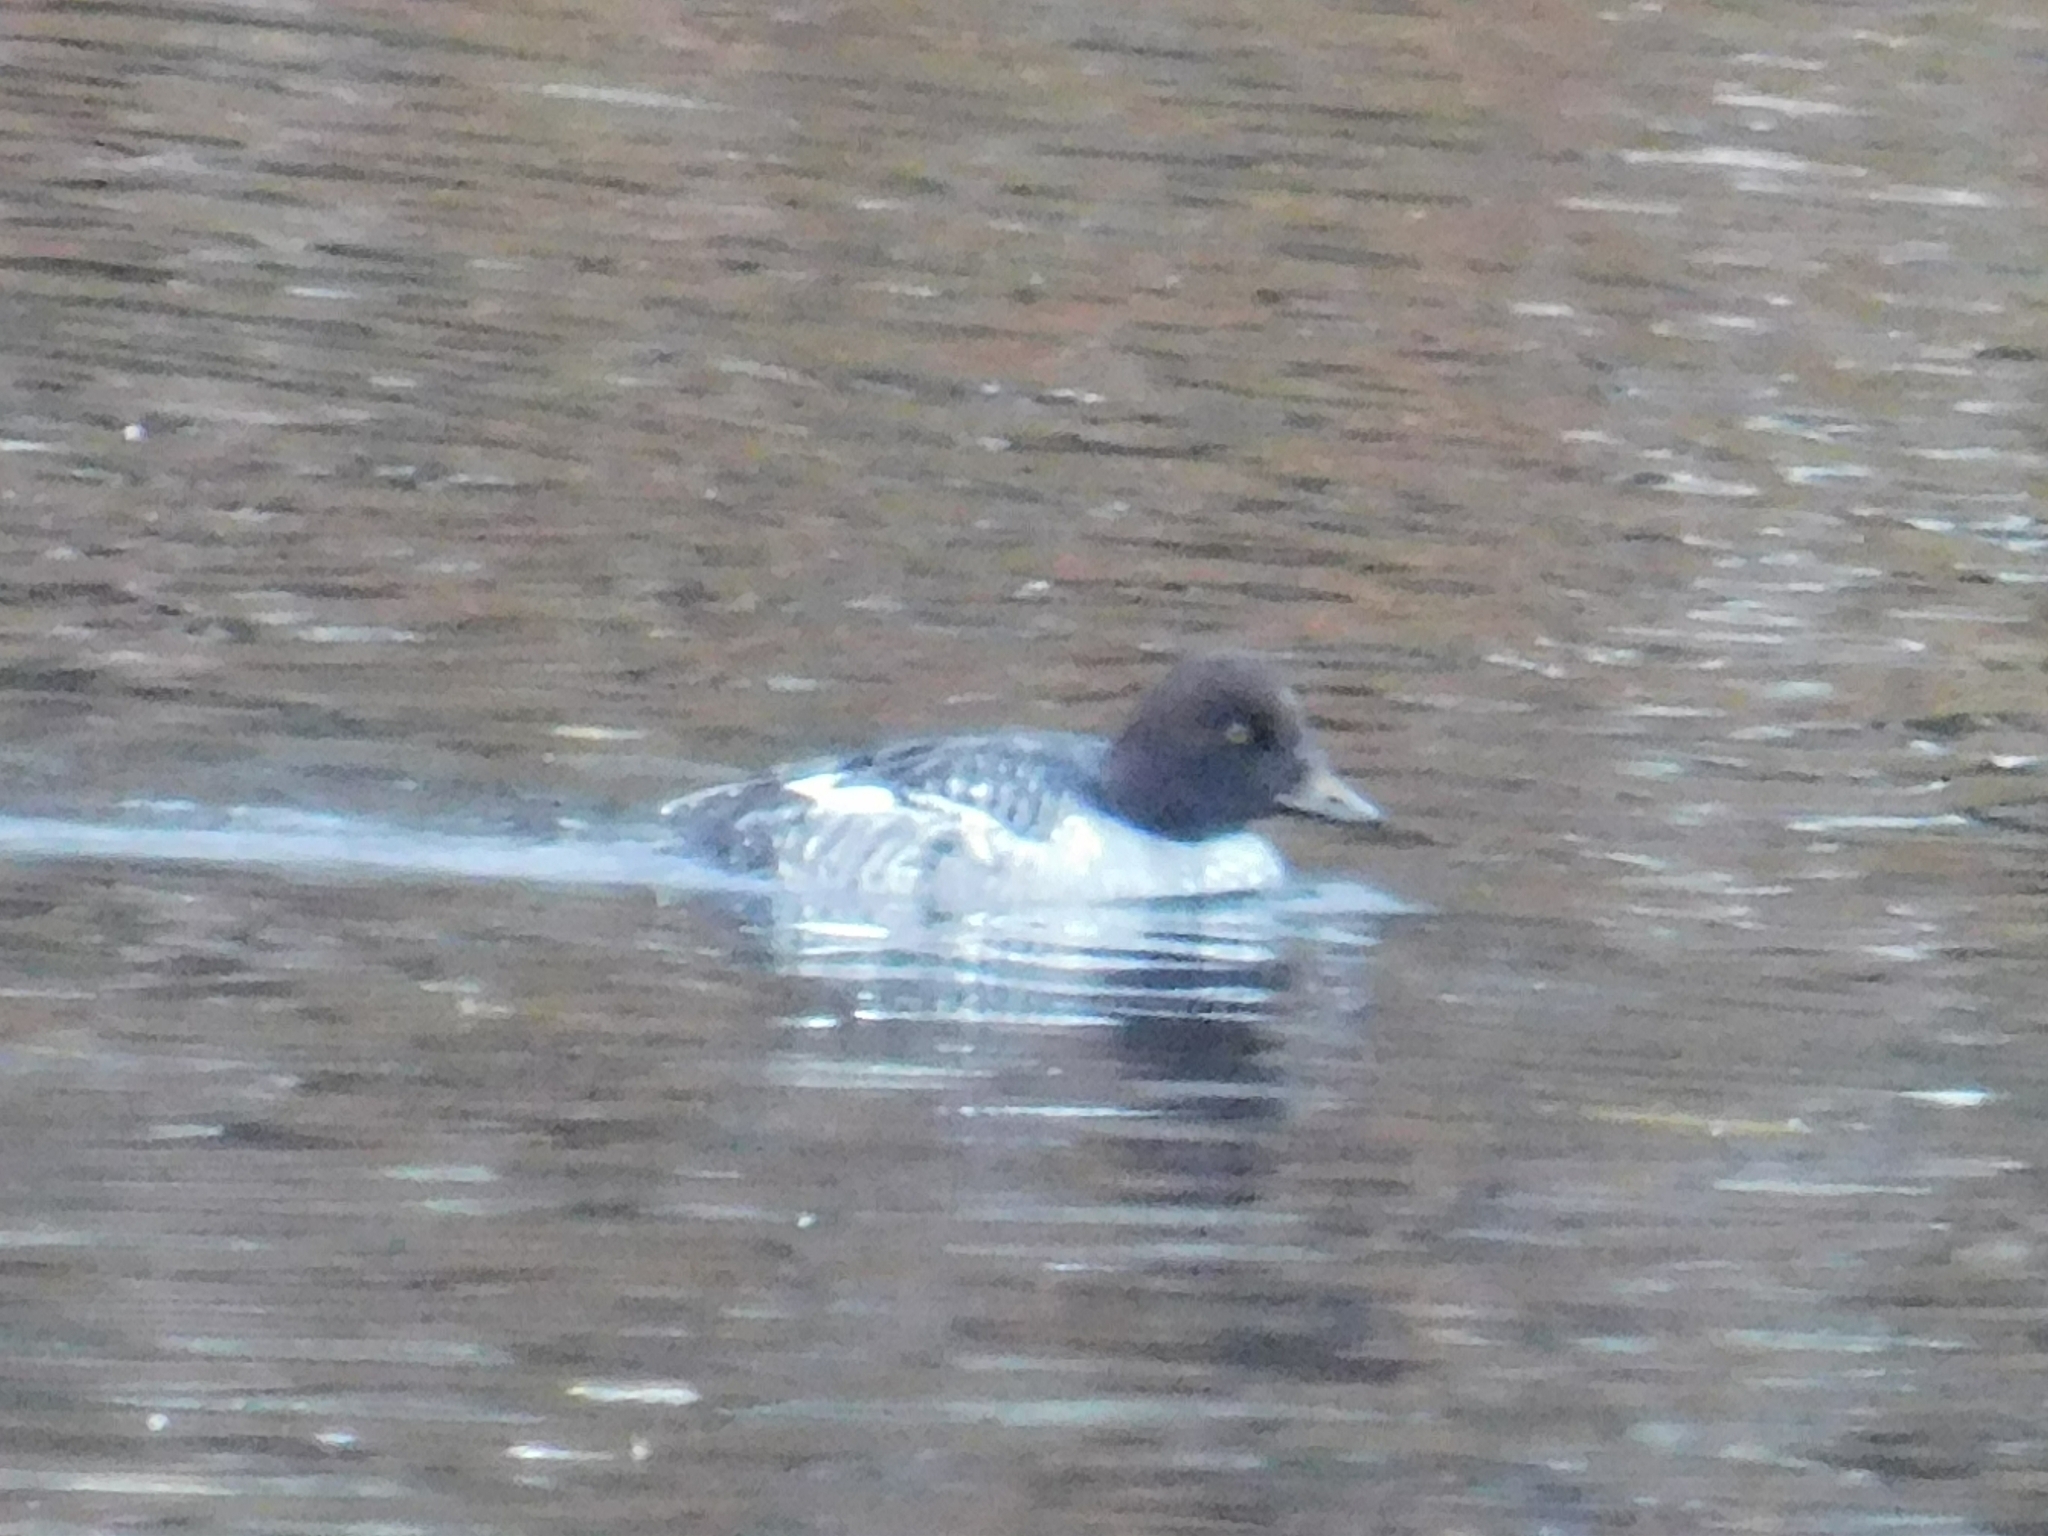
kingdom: Animalia
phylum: Chordata
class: Aves
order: Anseriformes
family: Anatidae
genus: Bucephala
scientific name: Bucephala clangula
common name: Common goldeneye
